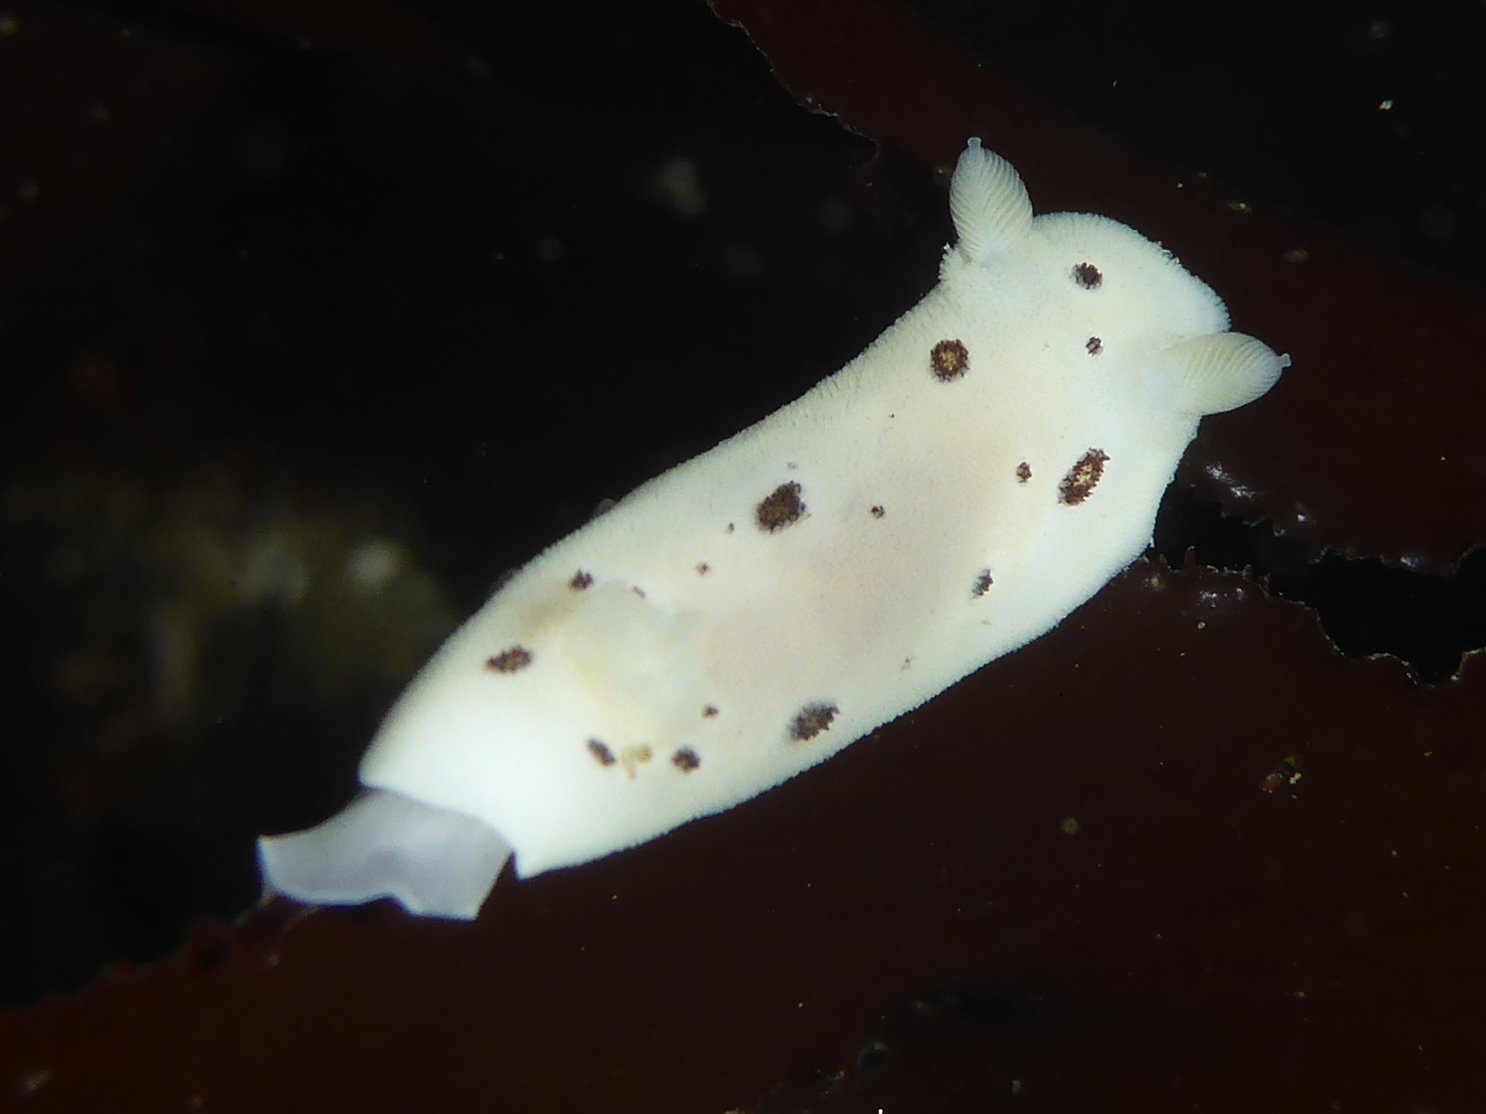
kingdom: Animalia
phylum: Mollusca
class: Gastropoda
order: Nudibranchia
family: Discodorididae
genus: Diaulula
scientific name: Diaulula sandiegensis
